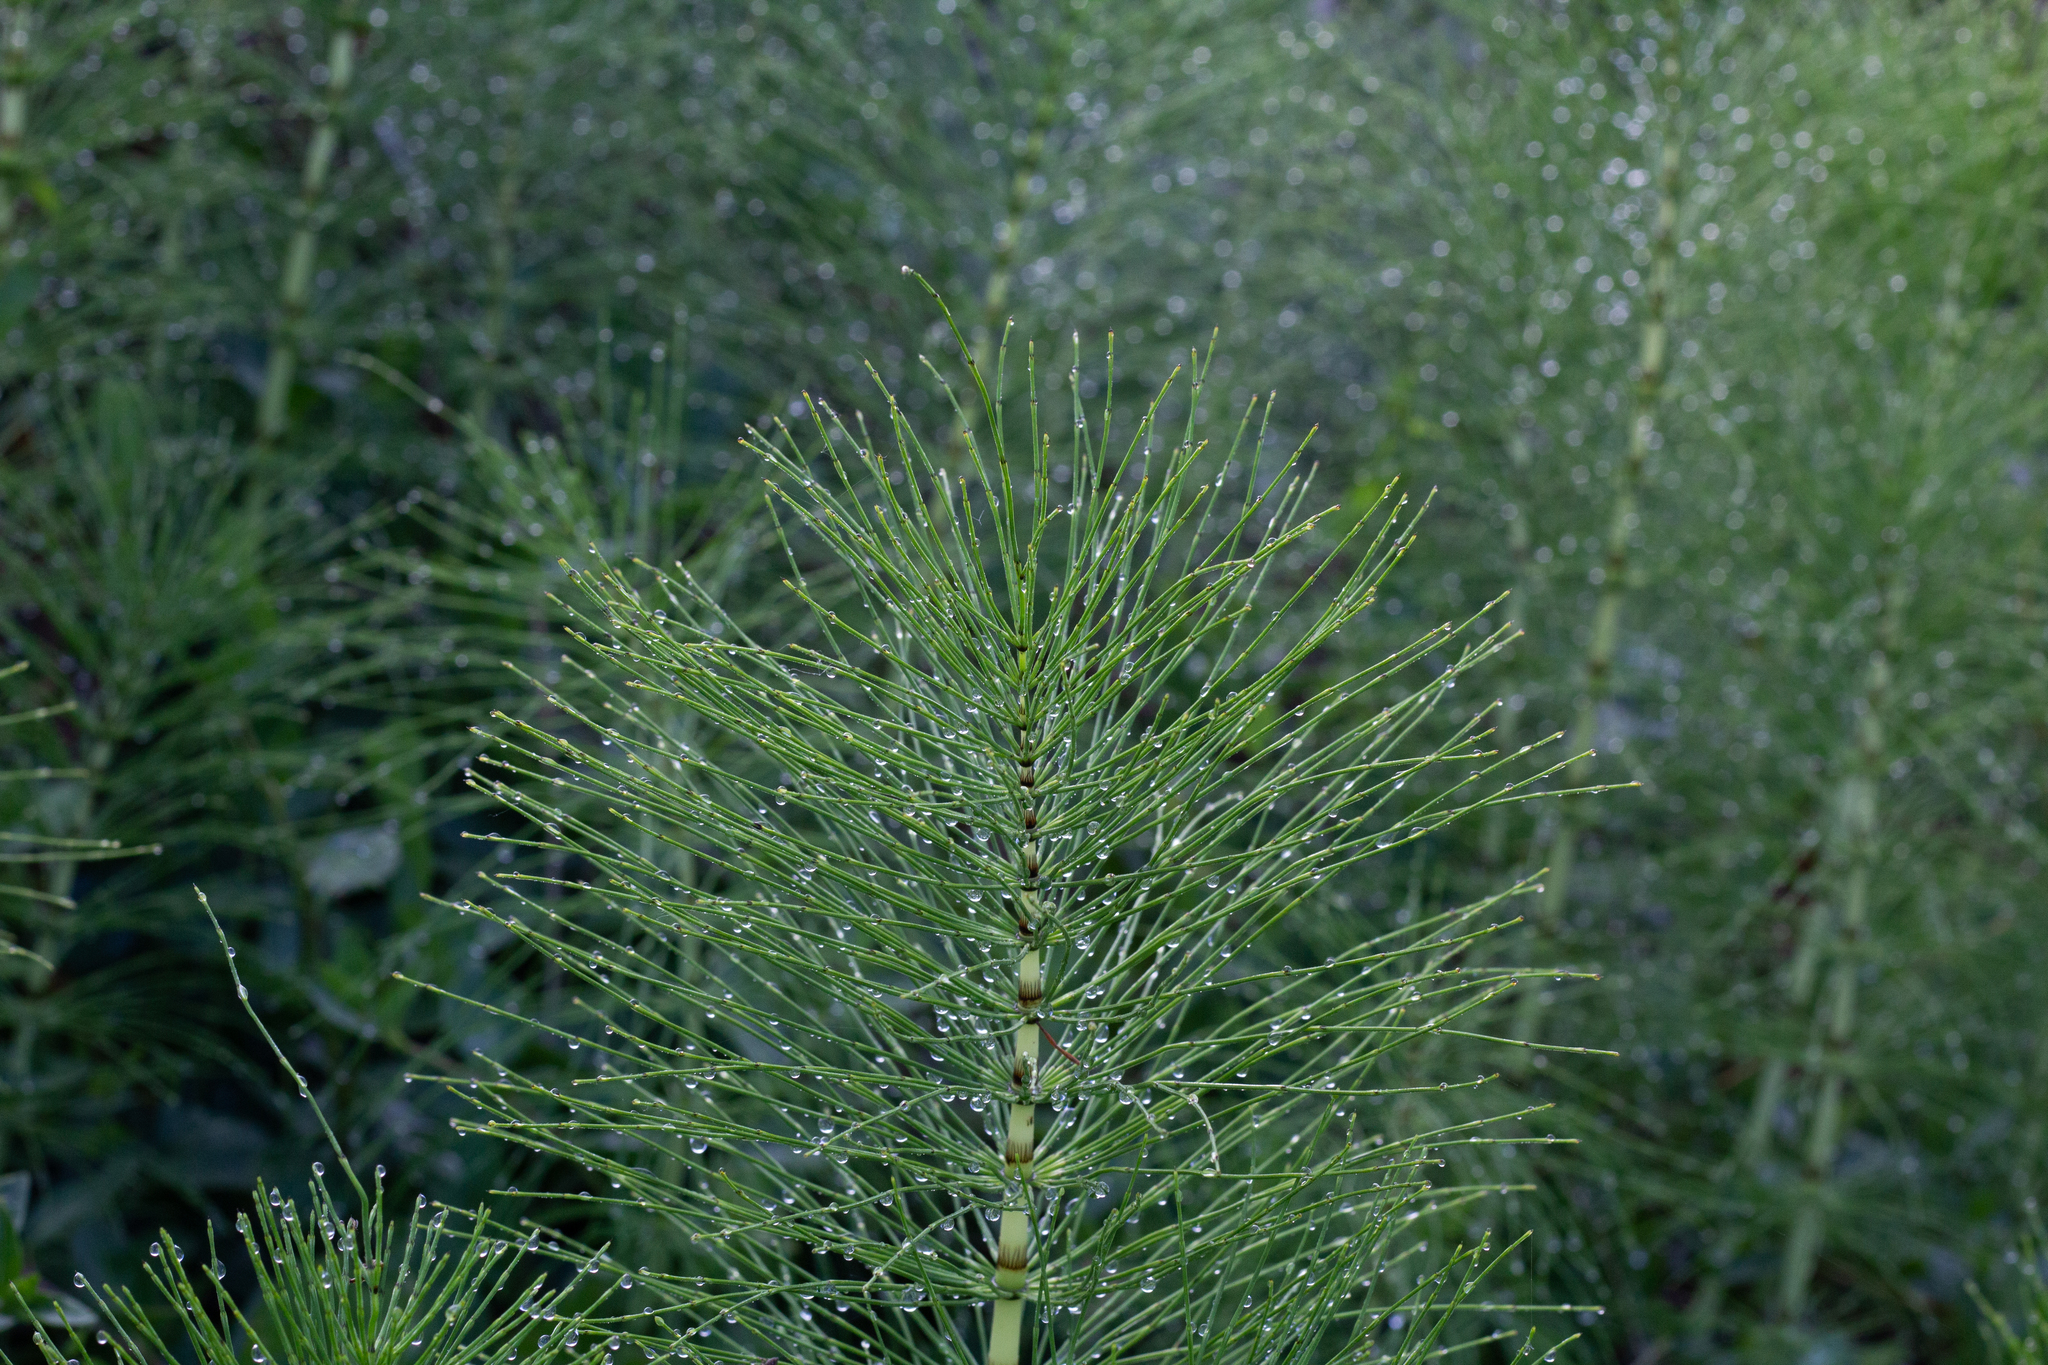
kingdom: Plantae
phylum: Tracheophyta
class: Polypodiopsida
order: Equisetales
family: Equisetaceae
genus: Equisetum
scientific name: Equisetum telmateia
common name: Great horsetail
